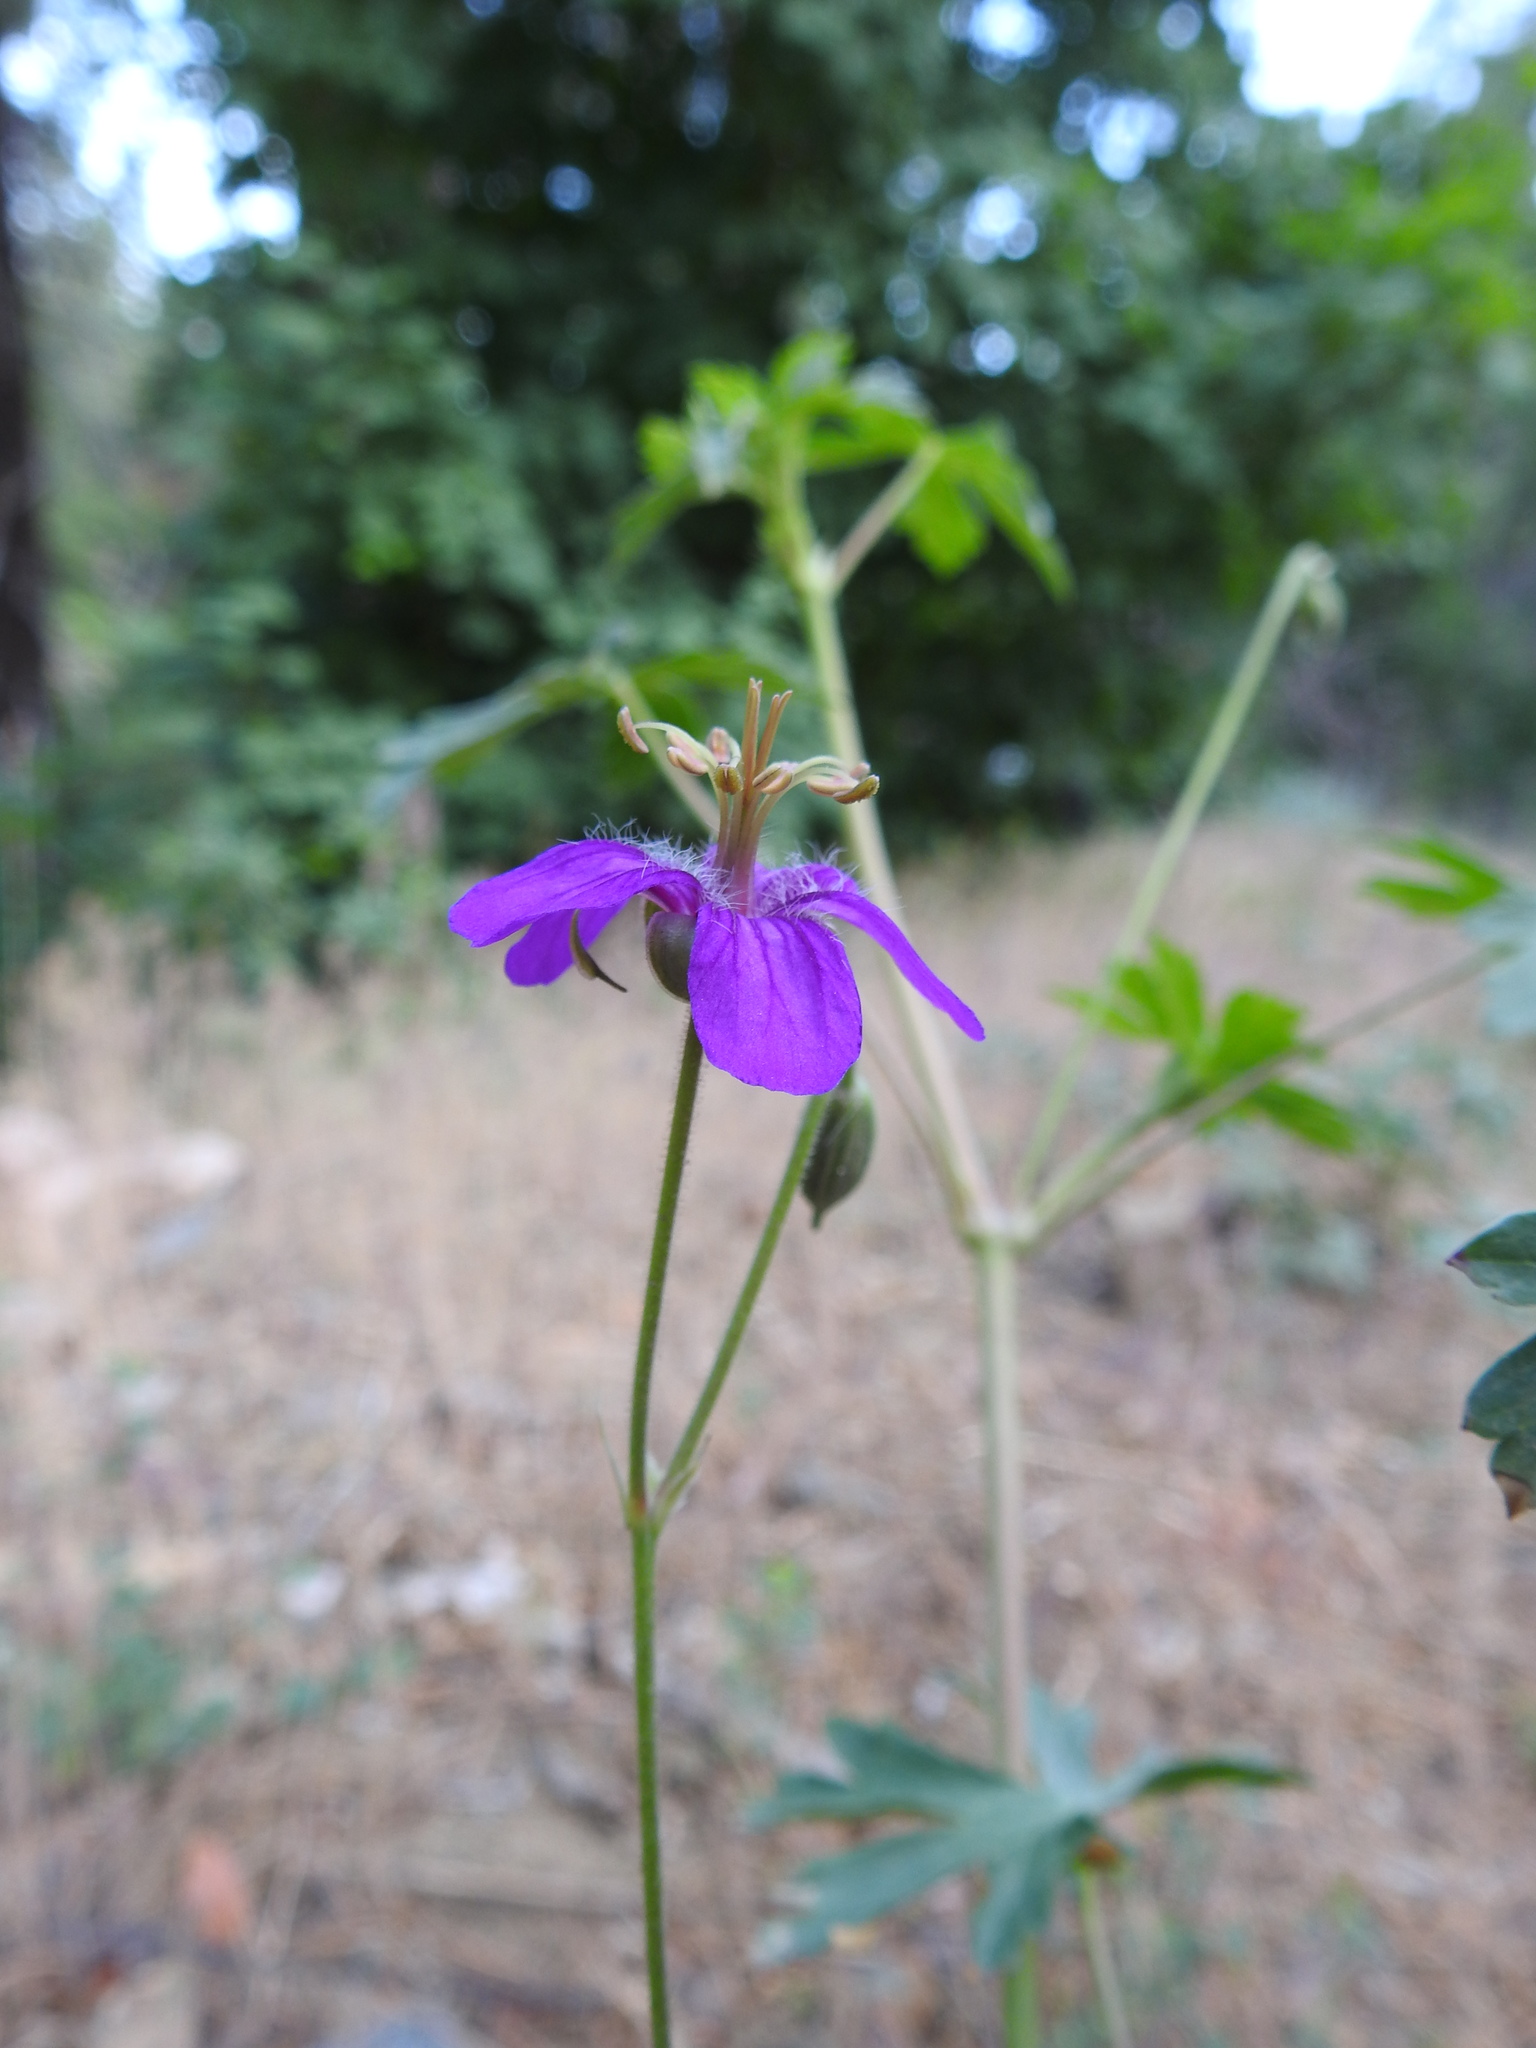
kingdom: Plantae
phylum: Tracheophyta
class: Magnoliopsida
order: Geraniales
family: Geraniaceae
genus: Geranium
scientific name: Geranium caespitosum
